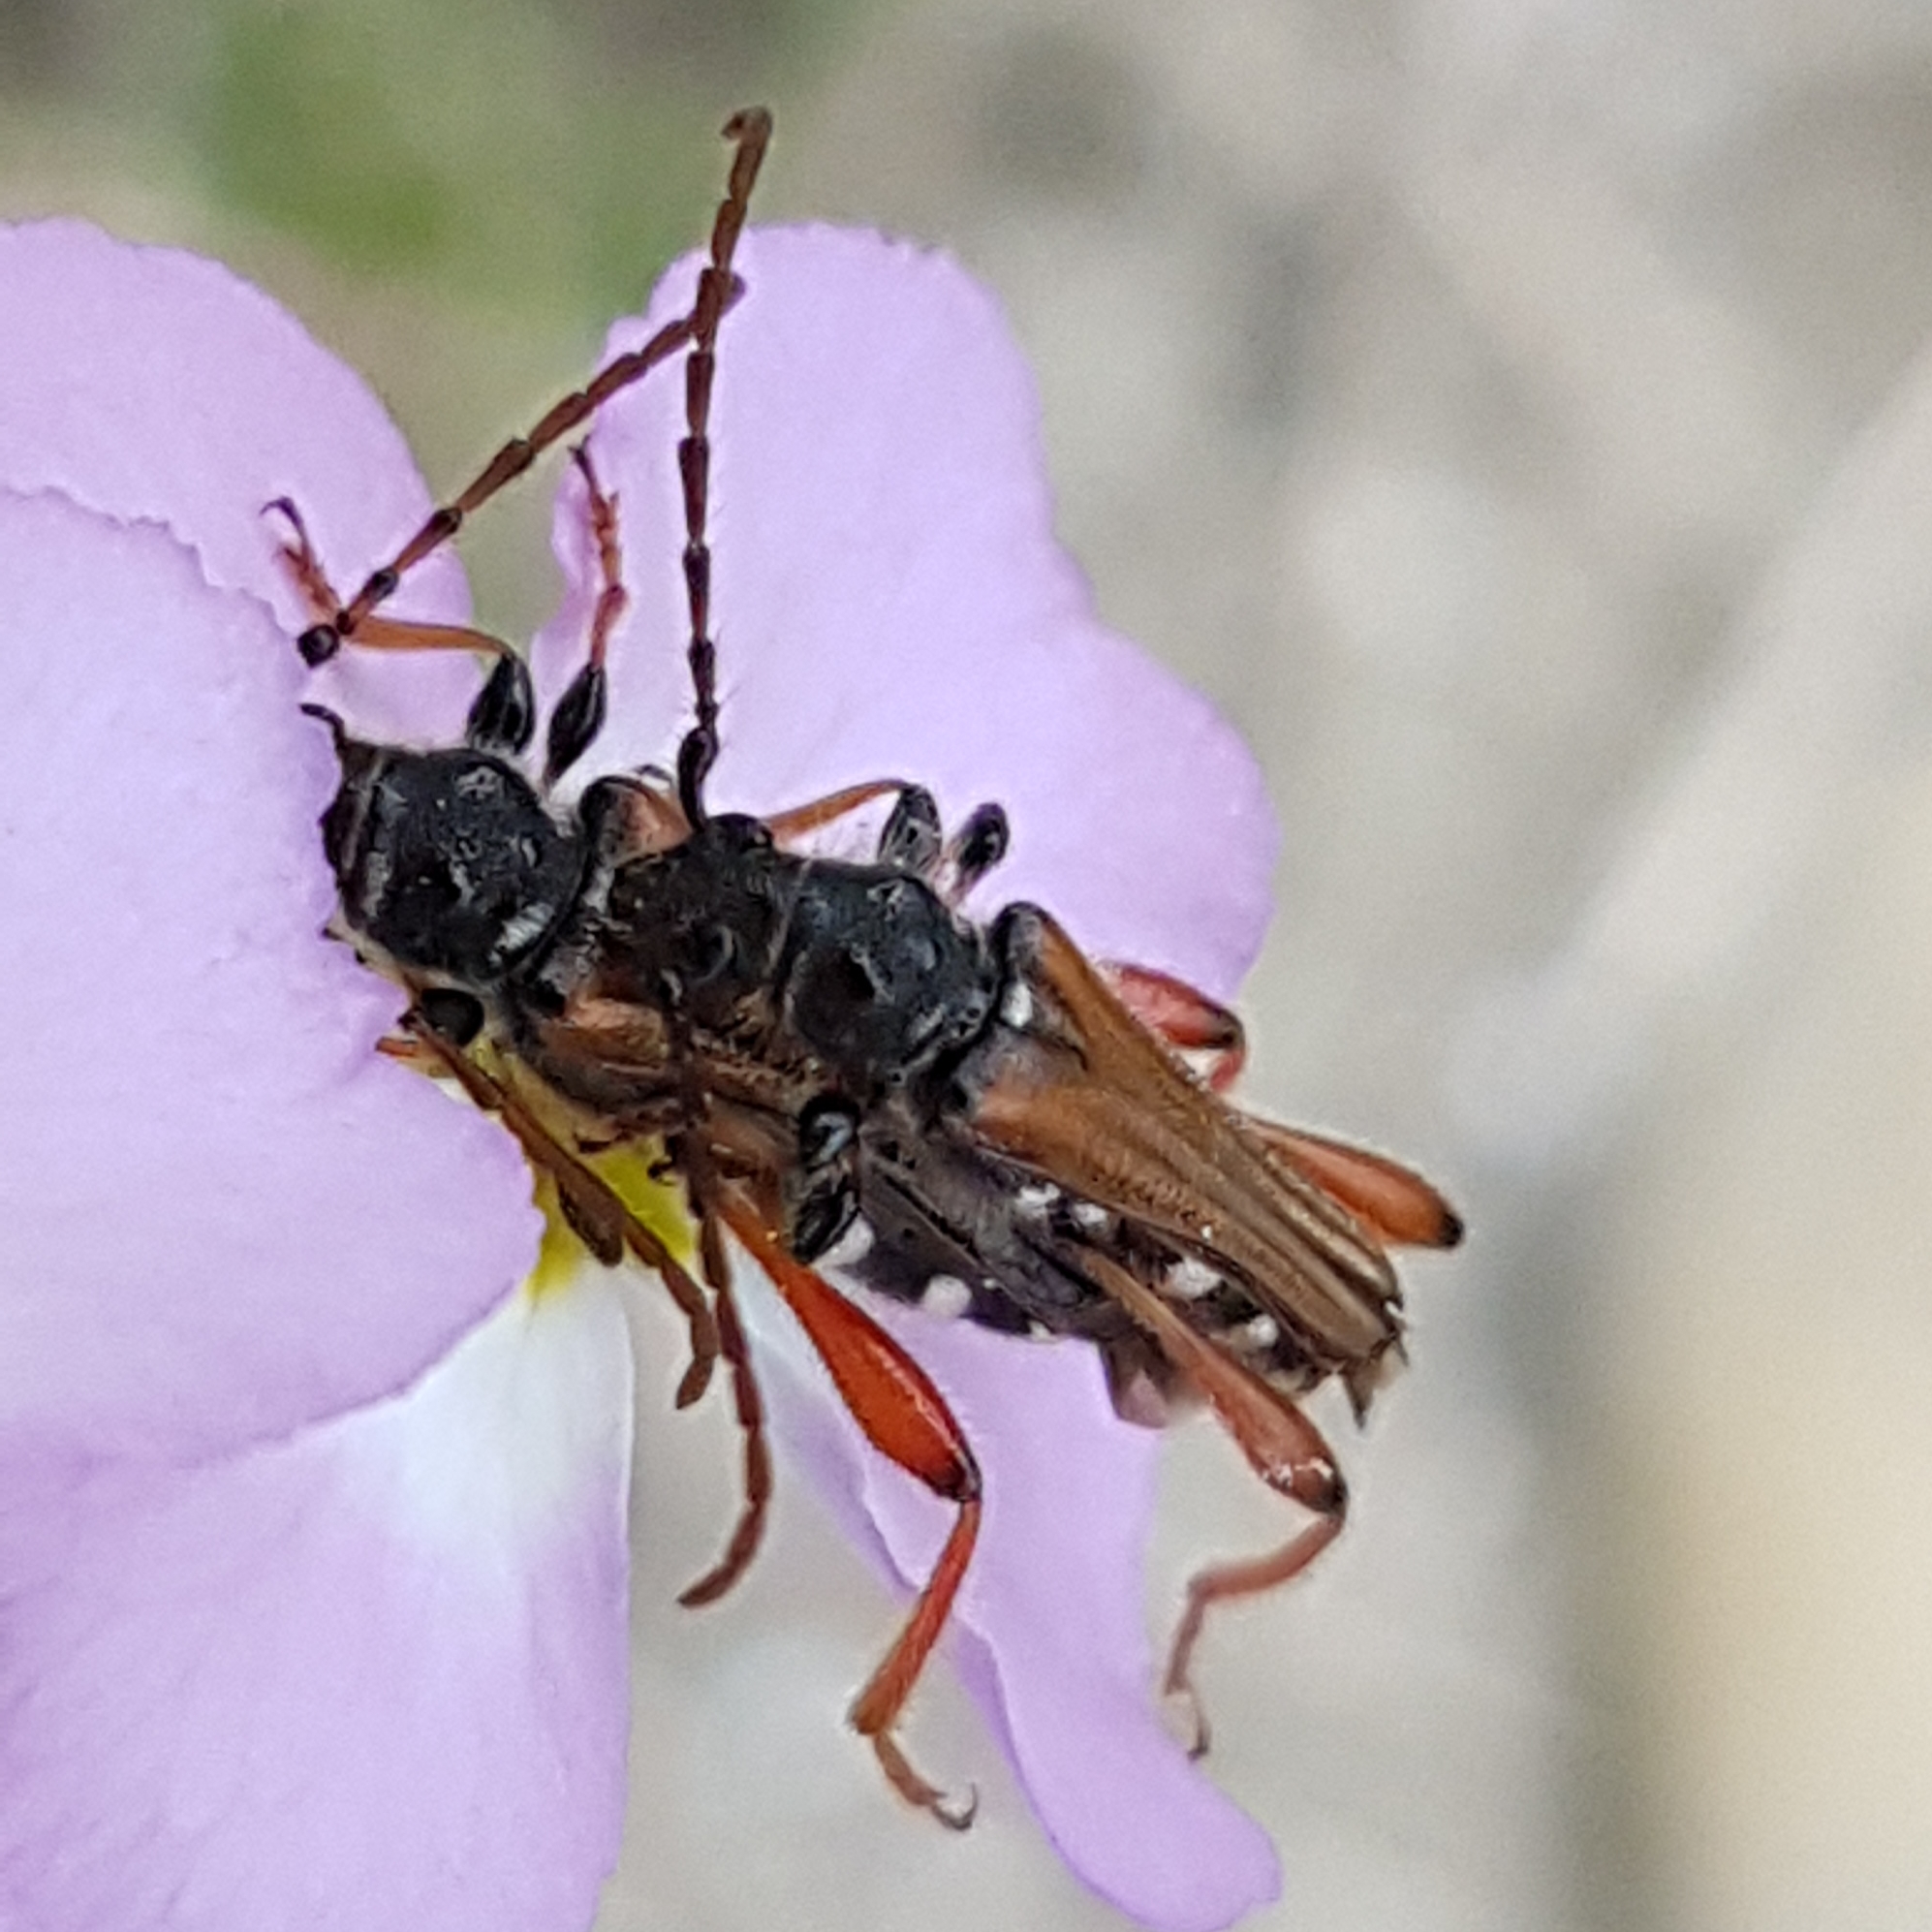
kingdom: Animalia
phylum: Arthropoda
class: Insecta
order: Coleoptera
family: Cerambycidae
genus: Stenopterus
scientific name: Stenopterus rufus
